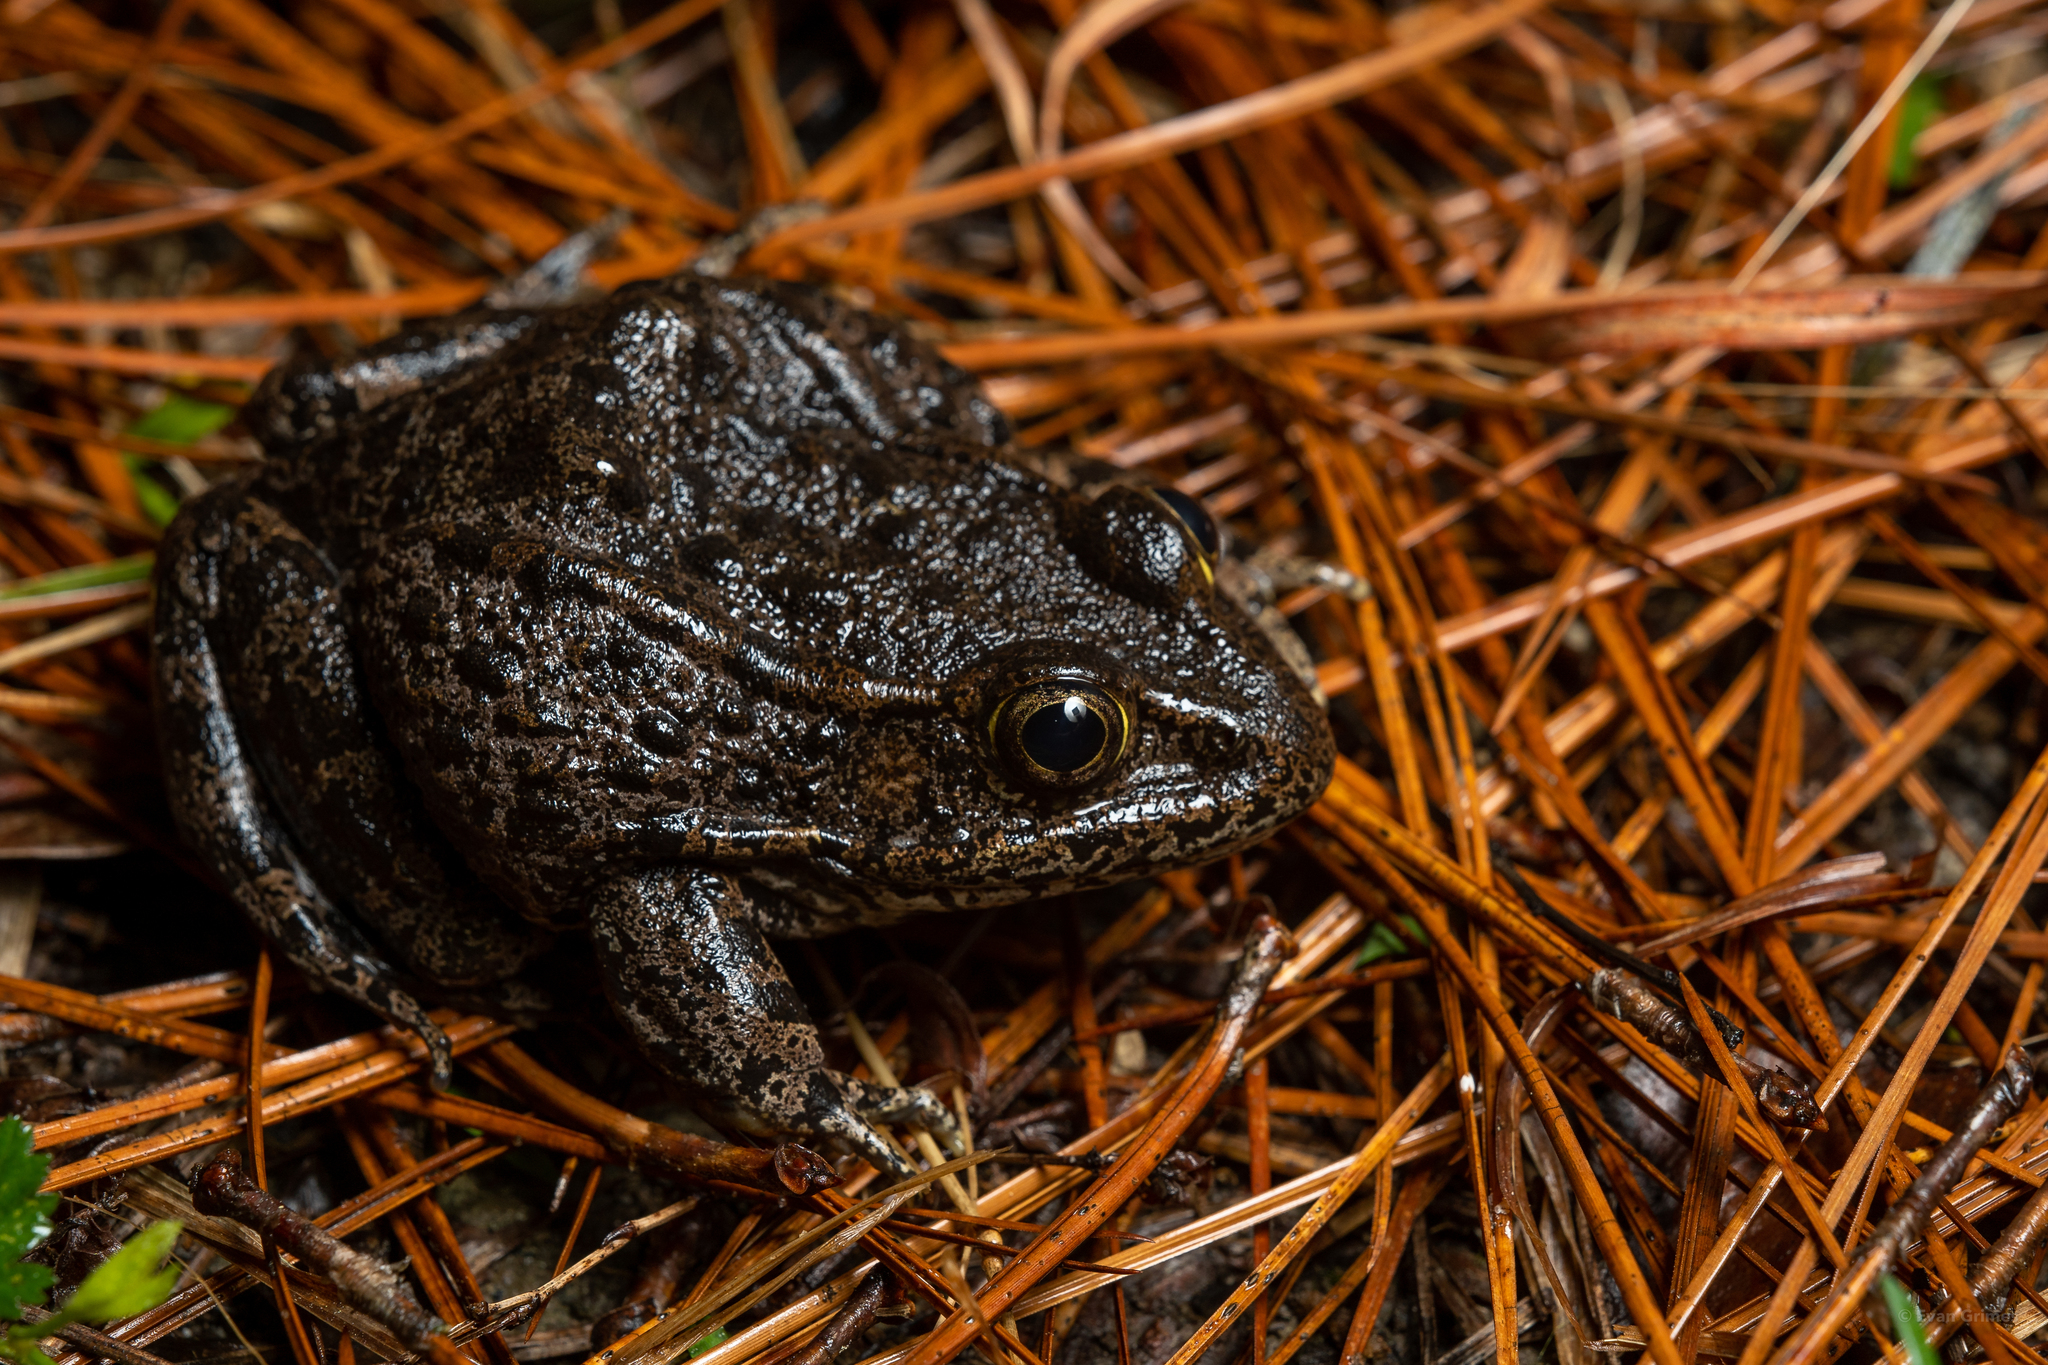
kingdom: Animalia
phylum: Chordata
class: Amphibia
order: Anura
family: Ranidae
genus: Lithobates
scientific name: Lithobates sevosus
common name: Dusky gopher frog
